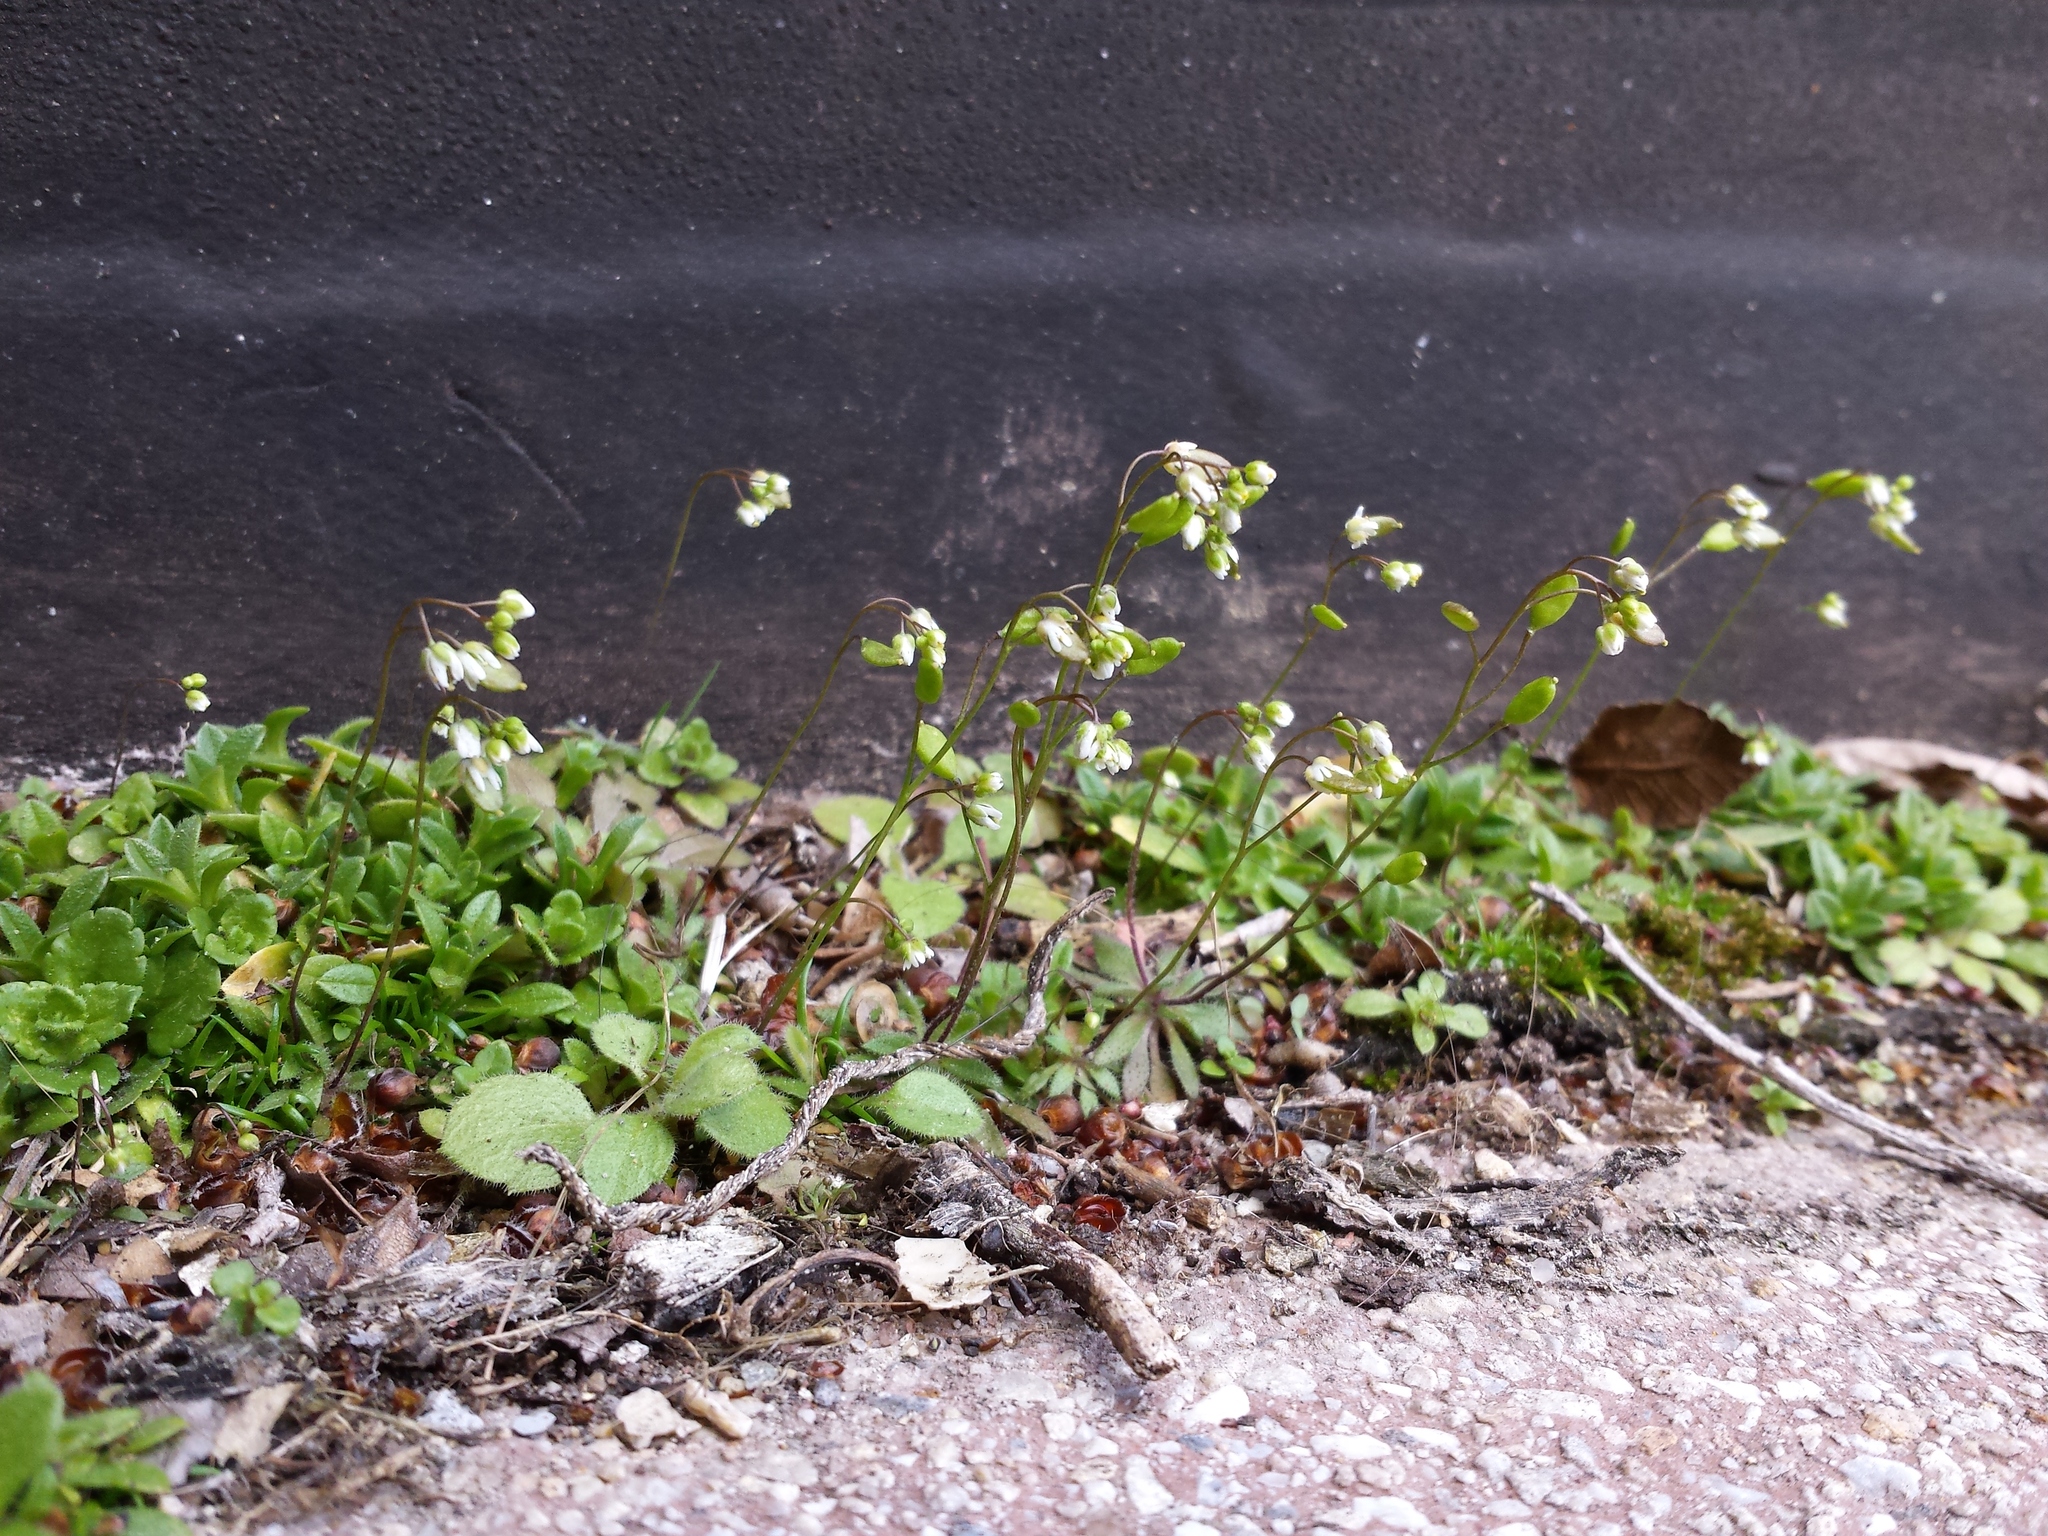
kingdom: Plantae
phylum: Tracheophyta
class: Magnoliopsida
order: Brassicales
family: Brassicaceae
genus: Draba
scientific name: Draba verna
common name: Spring draba
